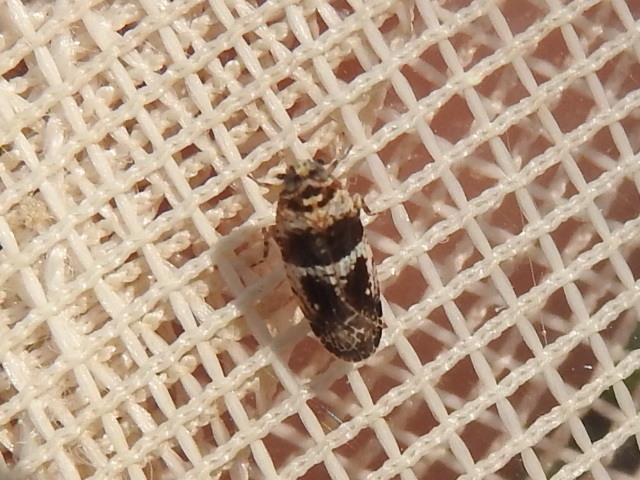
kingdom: Animalia
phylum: Arthropoda
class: Insecta
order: Hemiptera
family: Achilidae
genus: Catonia
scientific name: Catonia texana
